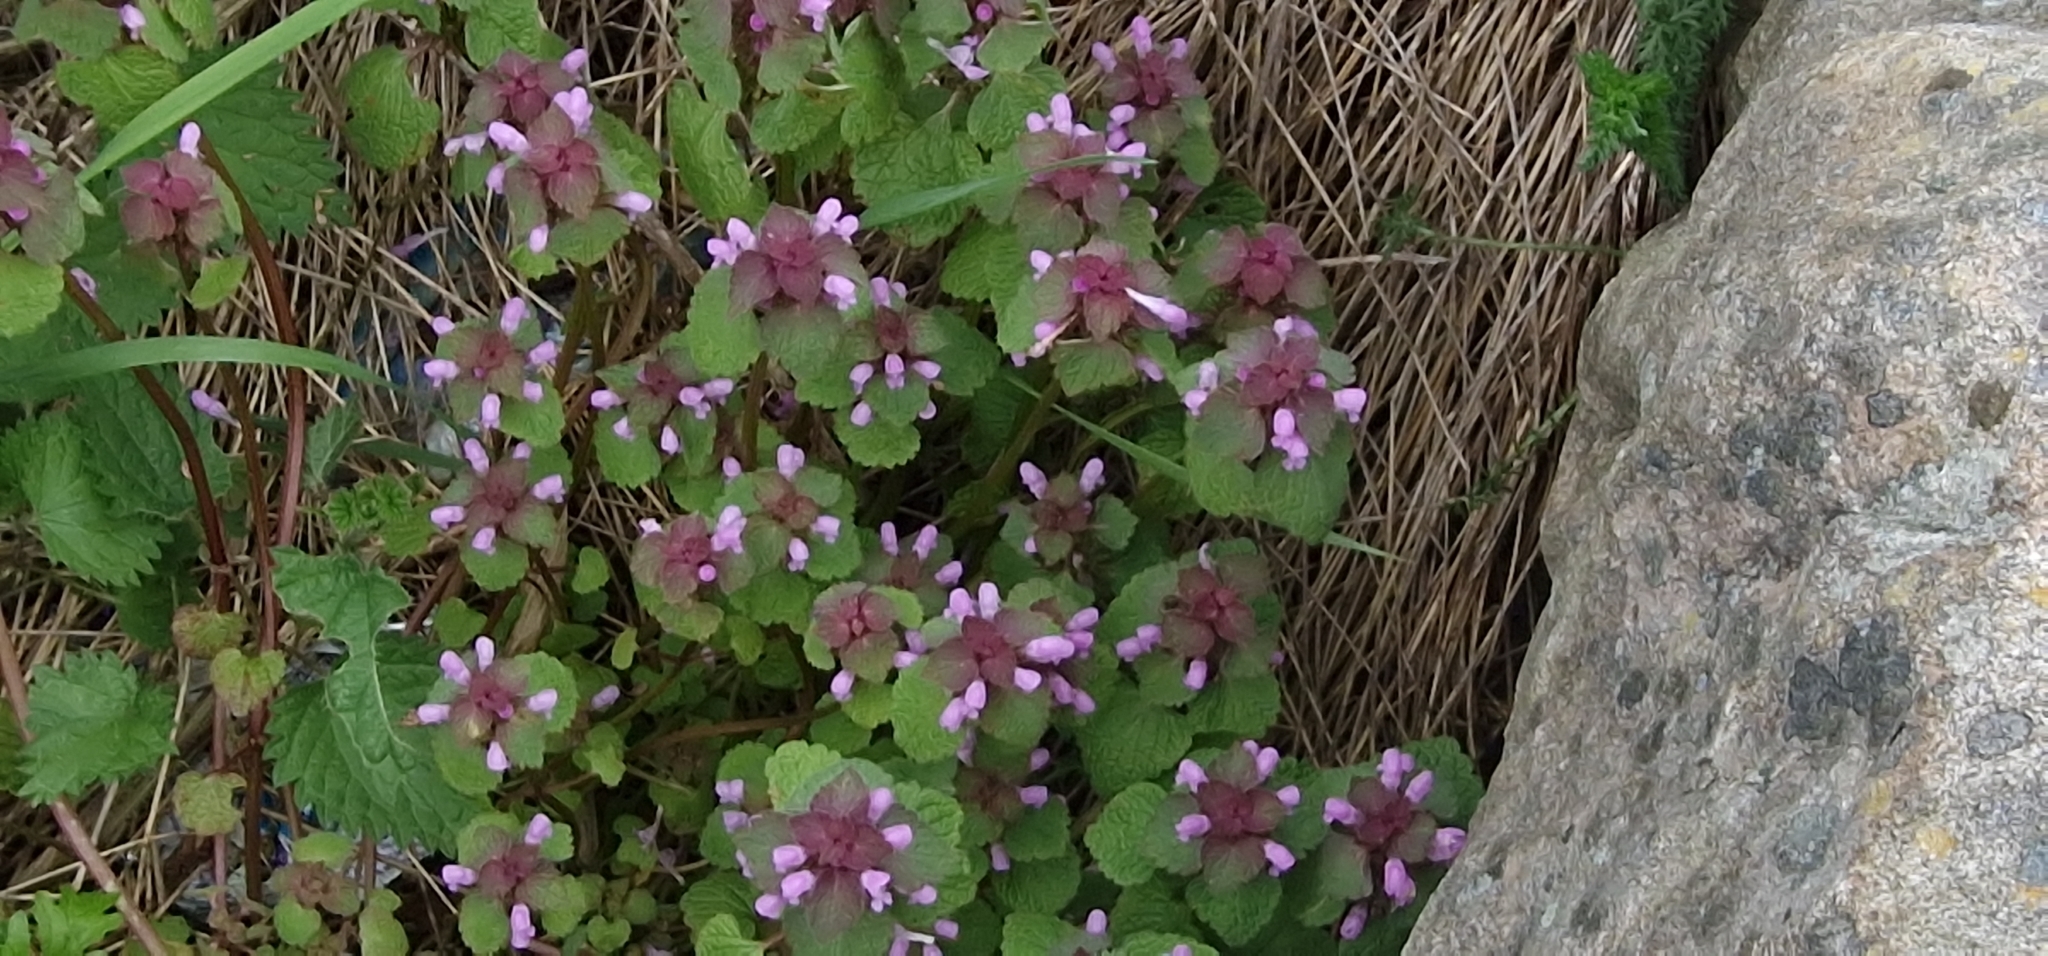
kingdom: Plantae
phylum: Tracheophyta
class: Magnoliopsida
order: Lamiales
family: Lamiaceae
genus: Lamium
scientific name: Lamium purpureum
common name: Red dead-nettle
